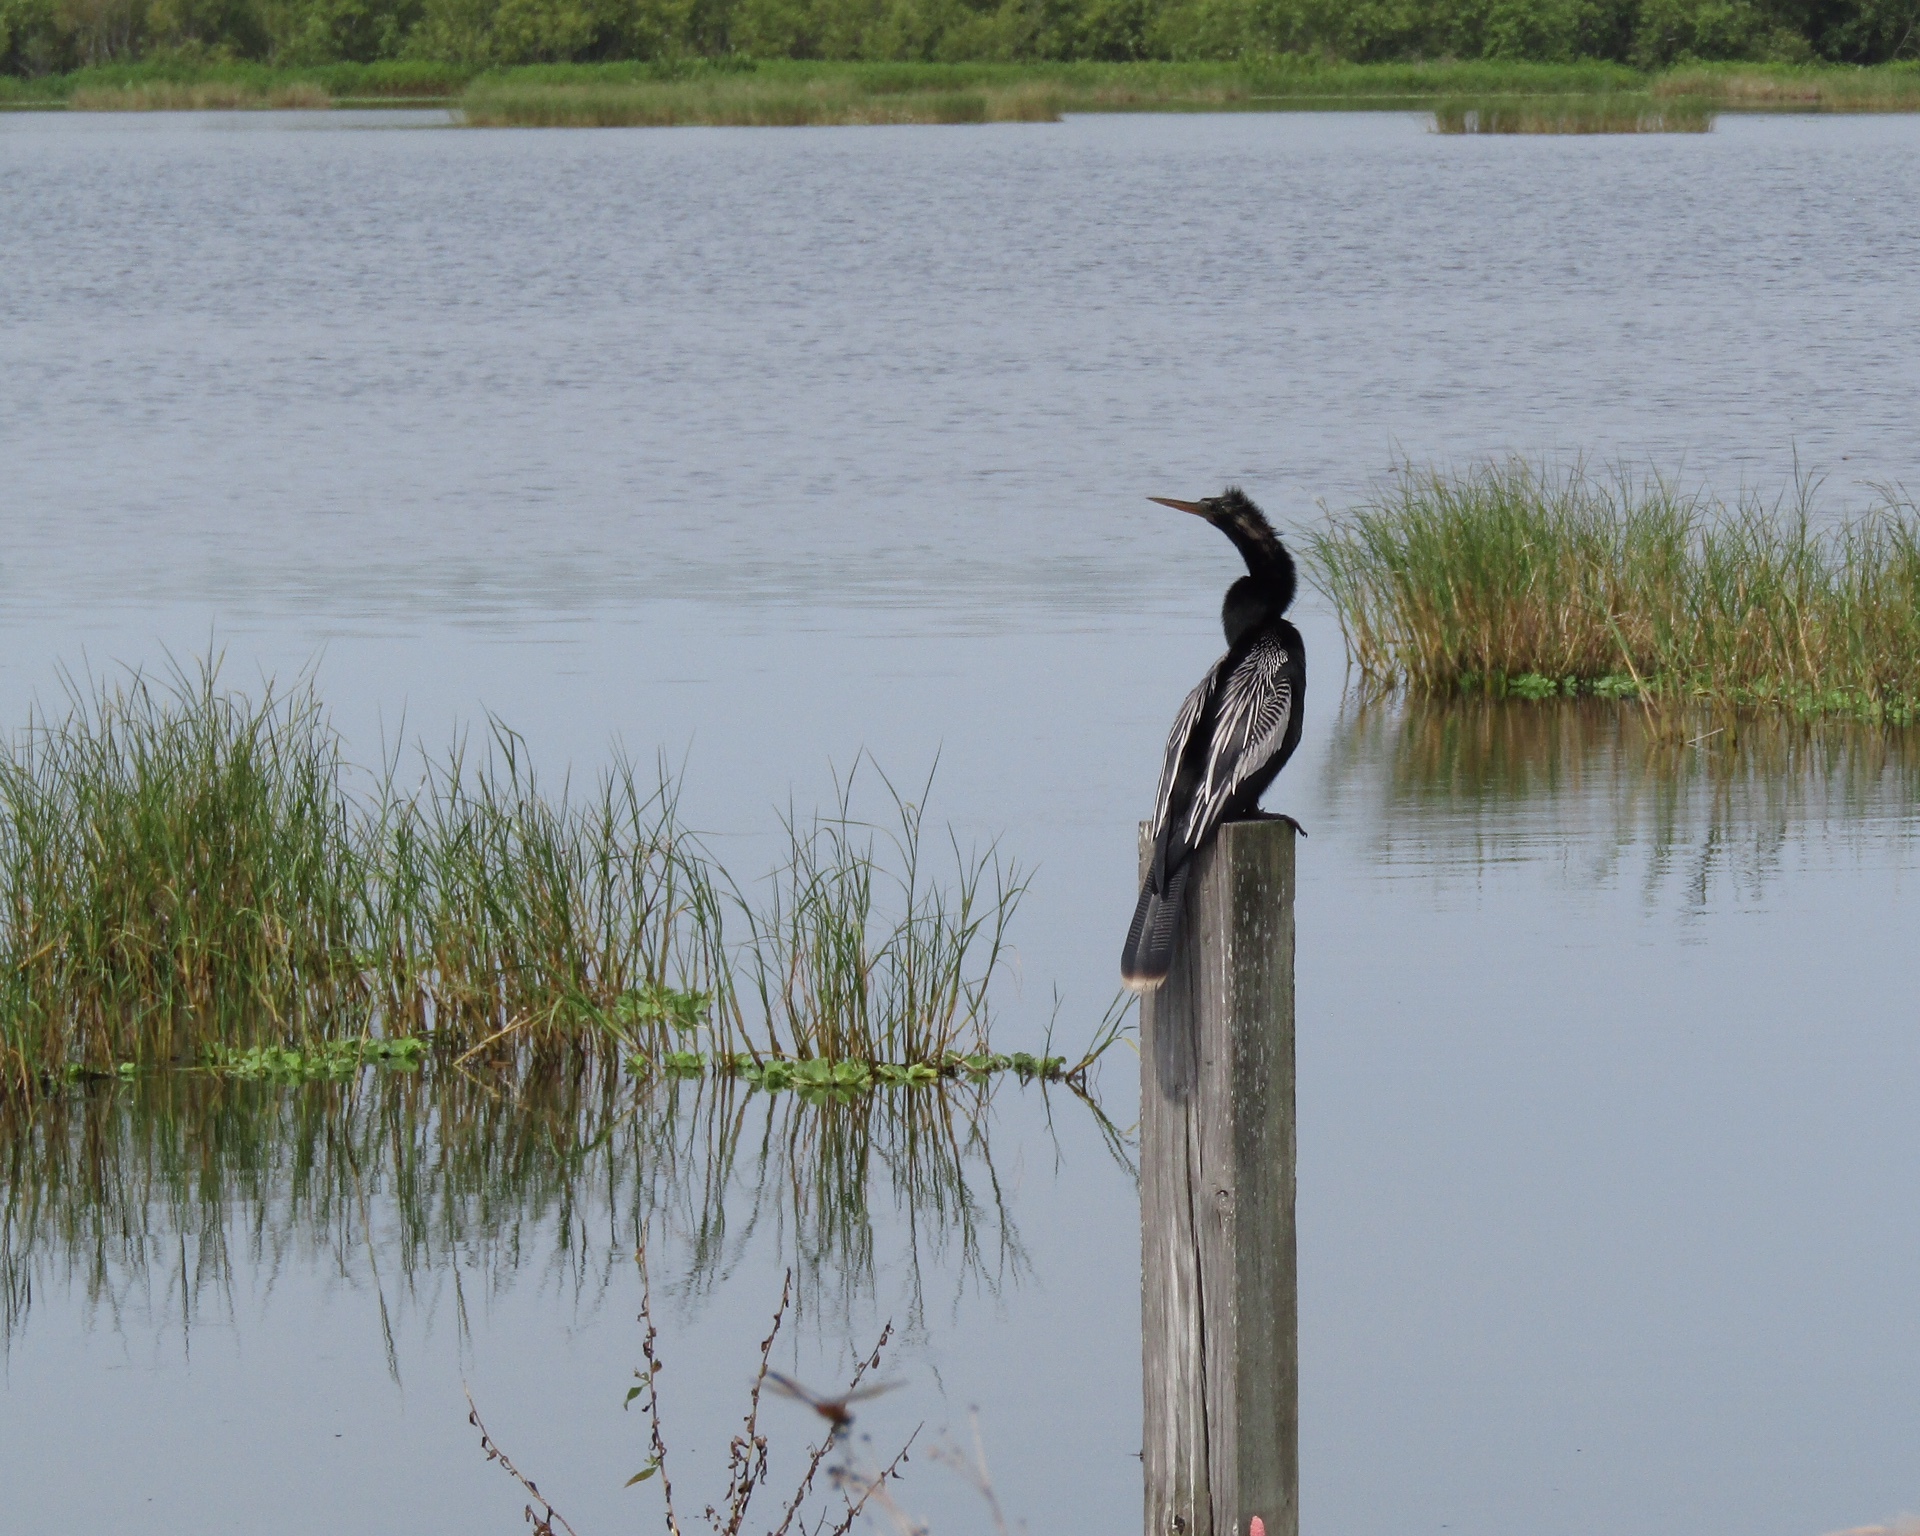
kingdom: Animalia
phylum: Chordata
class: Aves
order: Suliformes
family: Anhingidae
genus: Anhinga
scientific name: Anhinga anhinga
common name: Anhinga
